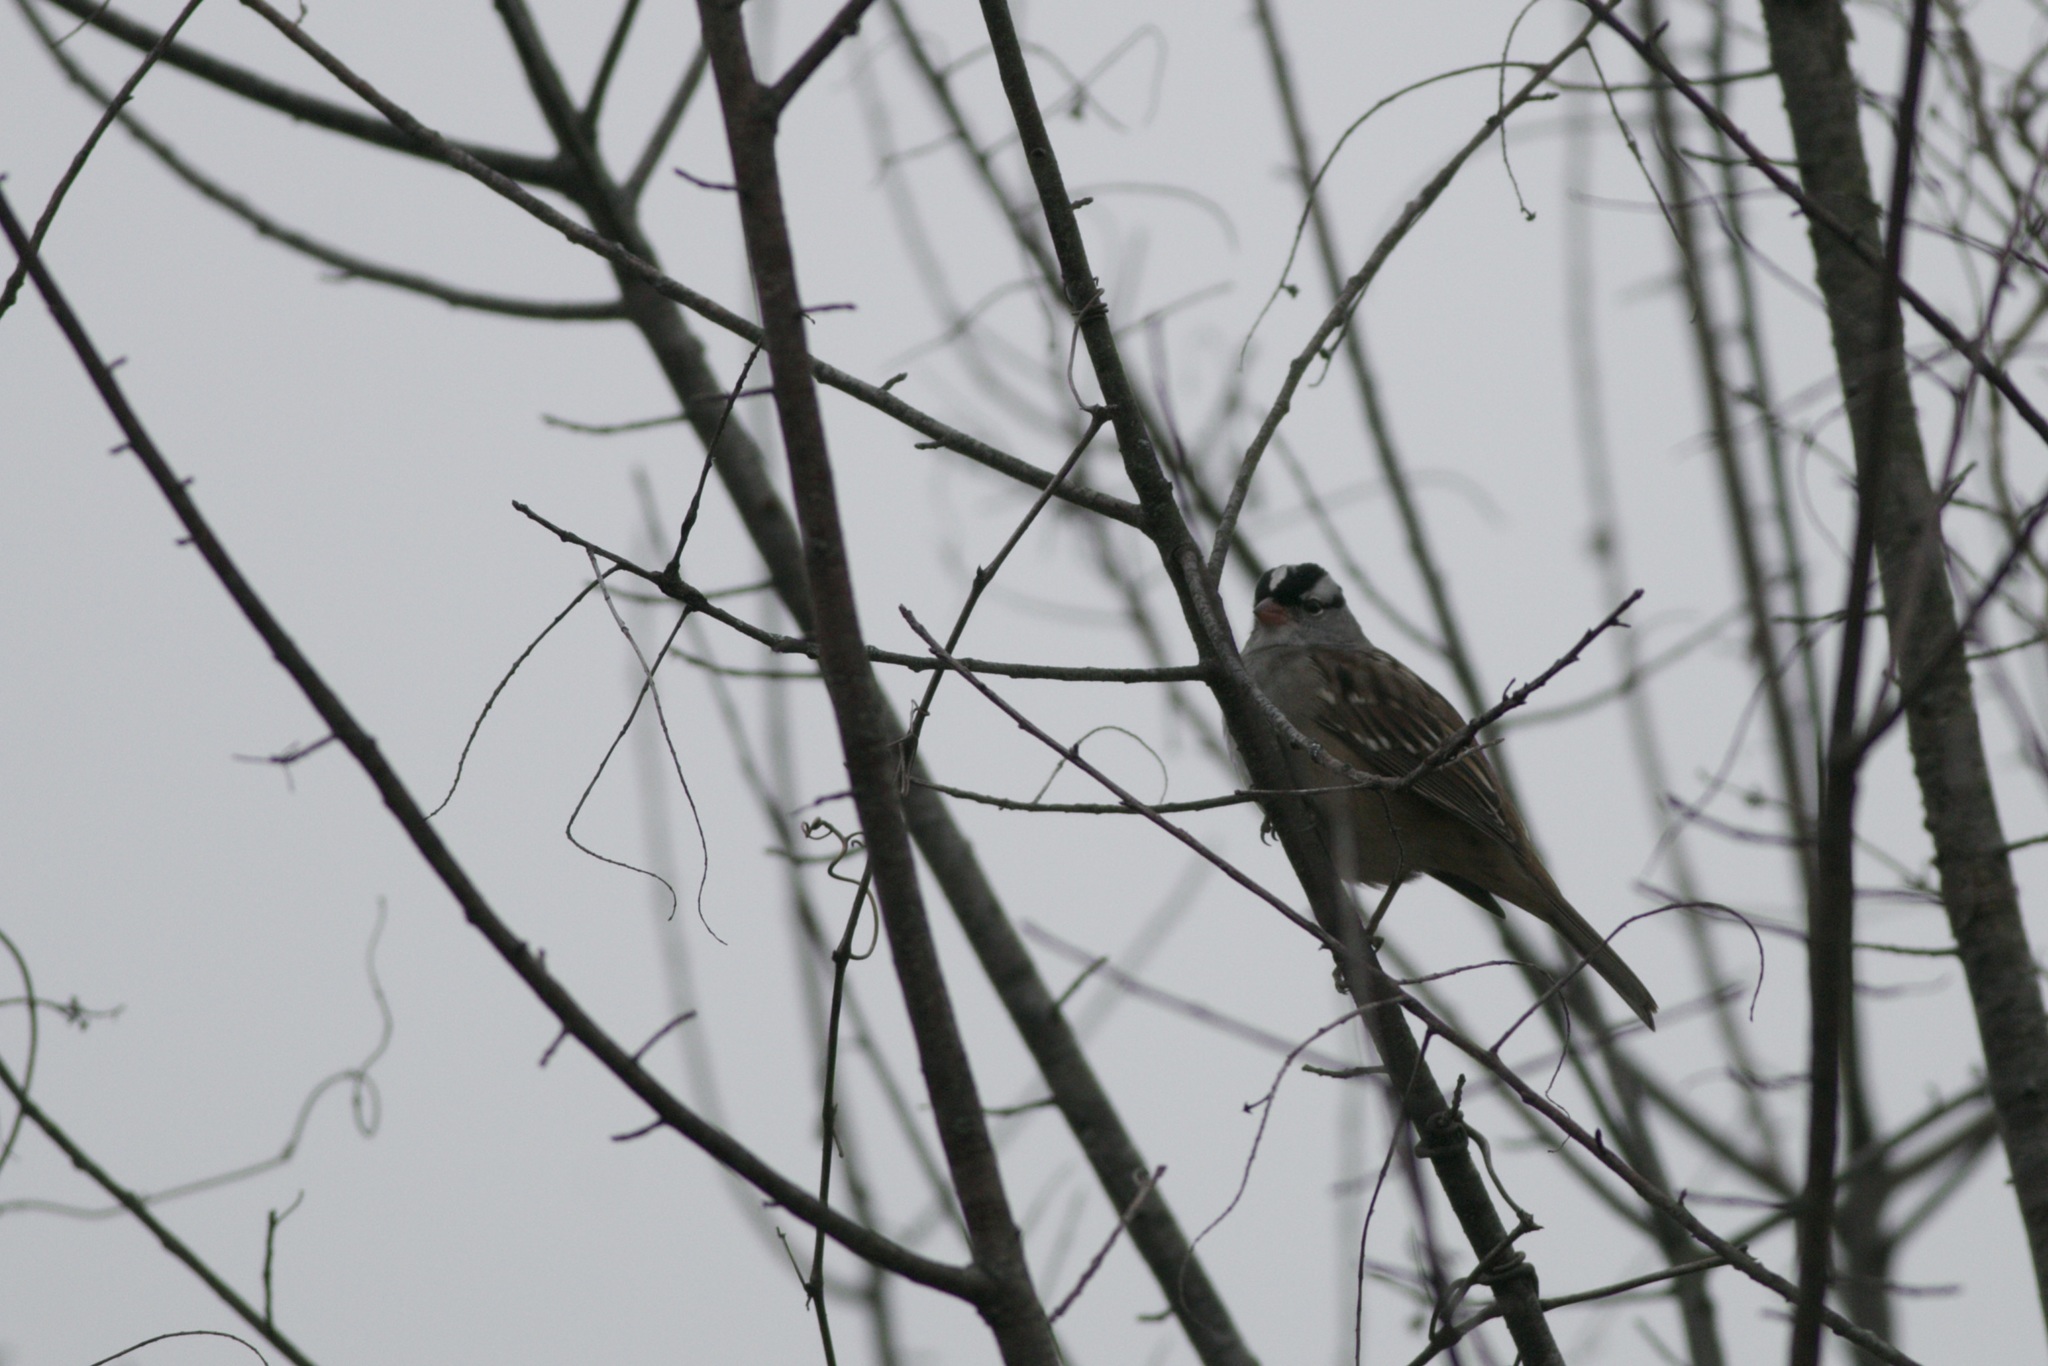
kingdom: Animalia
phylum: Chordata
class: Aves
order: Passeriformes
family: Passerellidae
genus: Zonotrichia
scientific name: Zonotrichia leucophrys
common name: White-crowned sparrow
